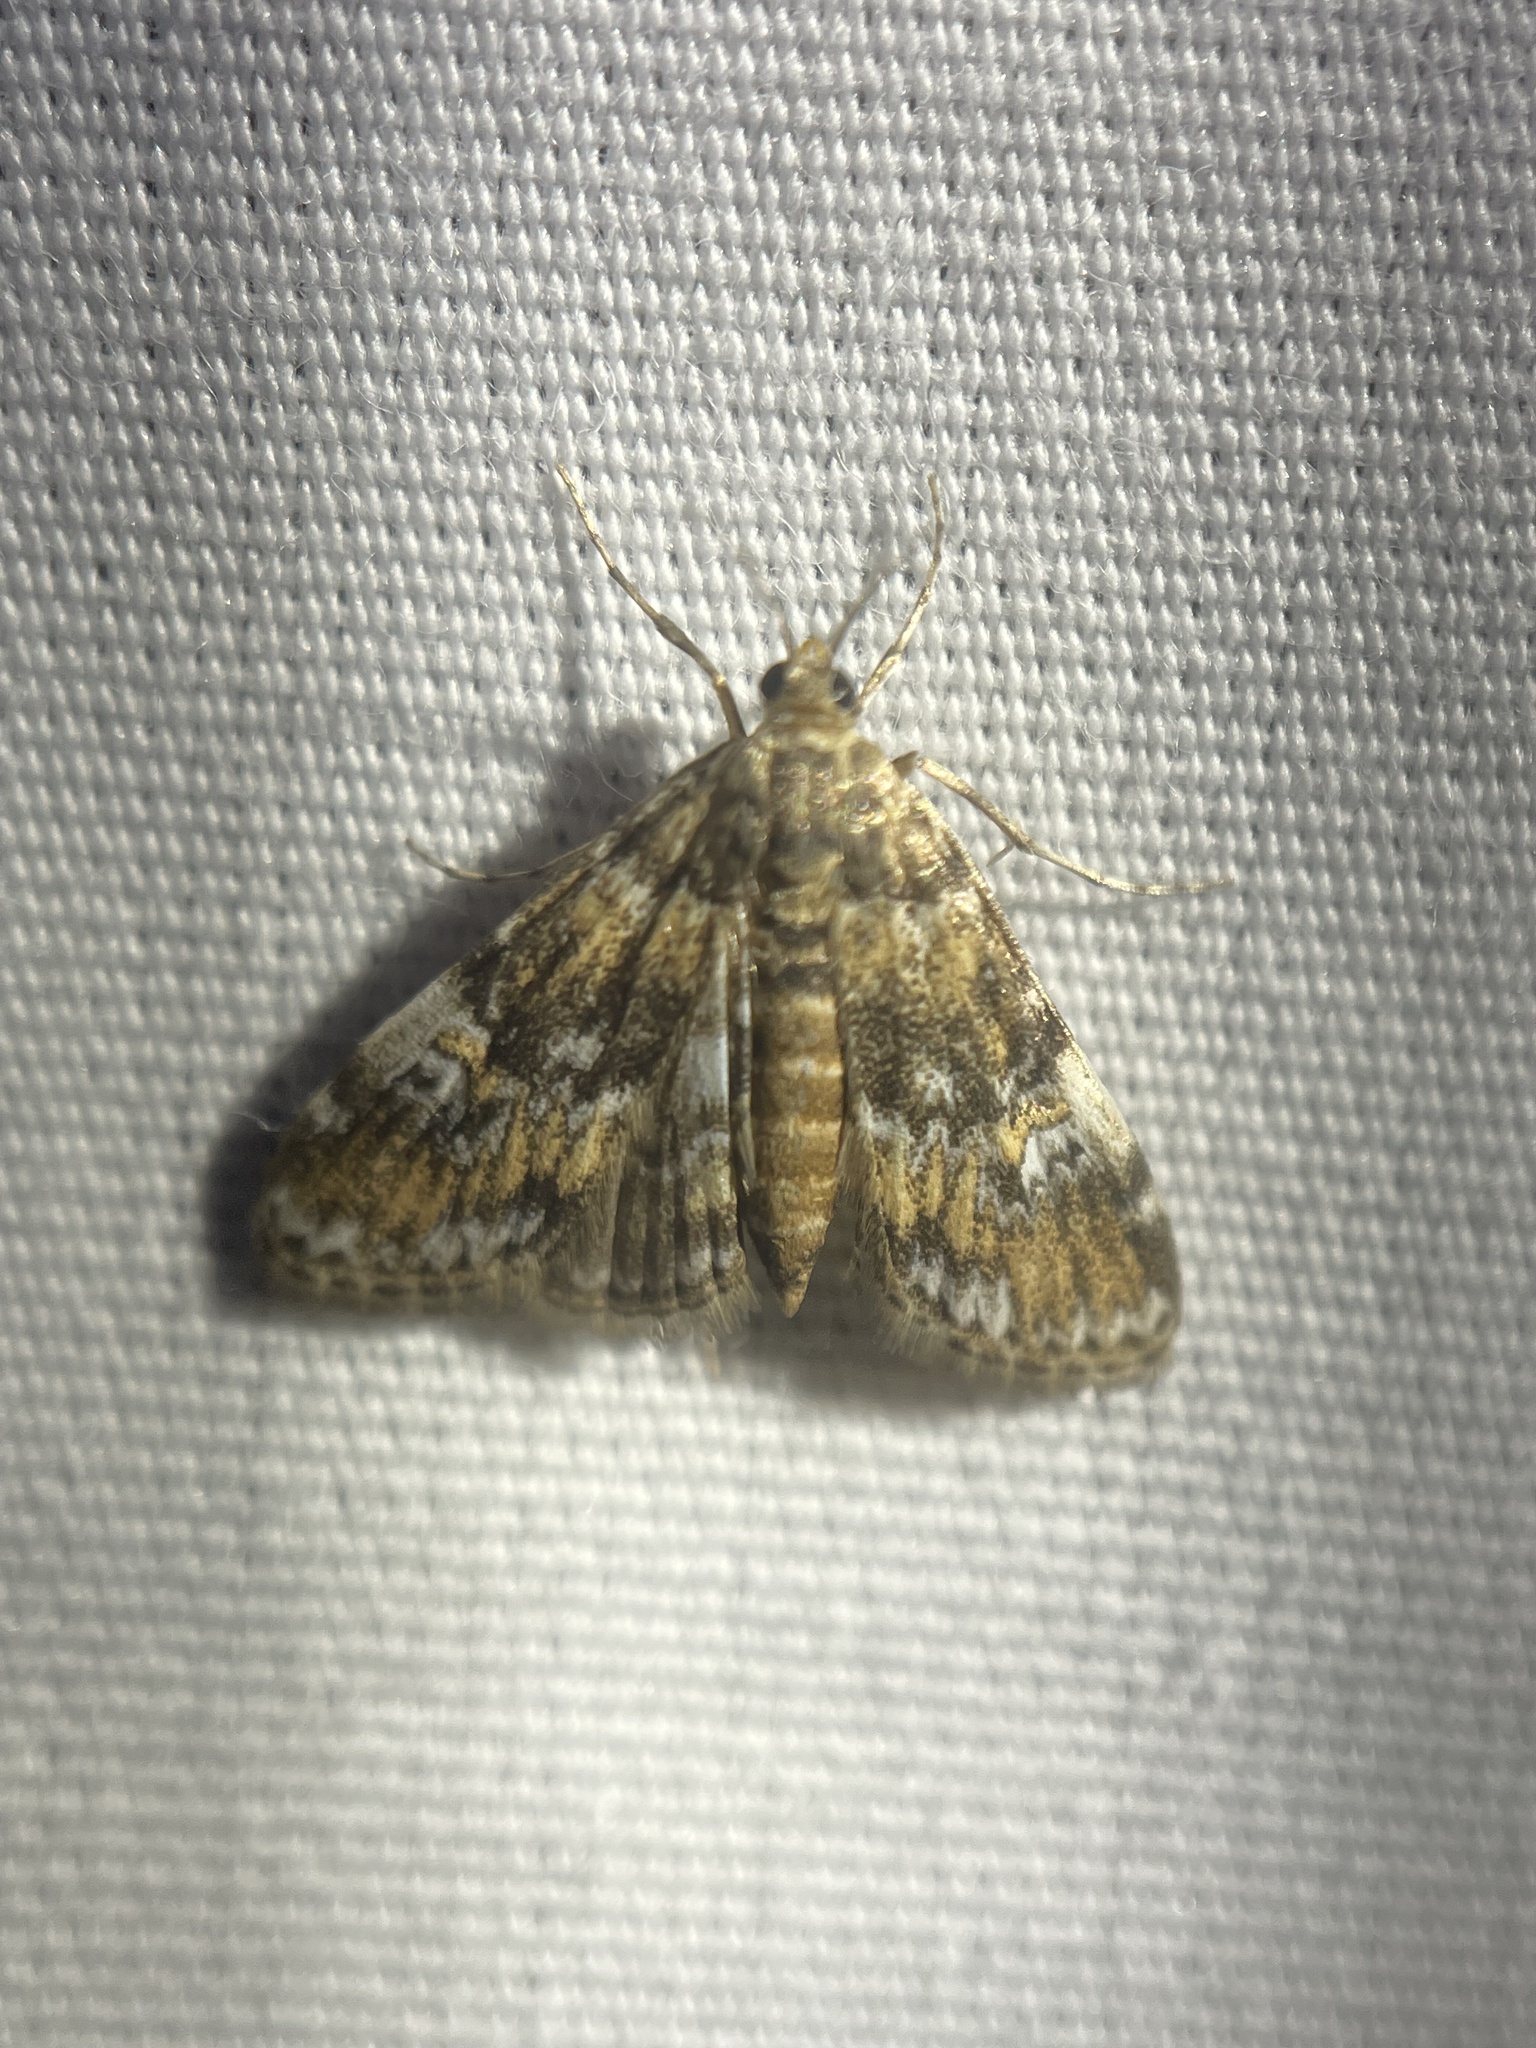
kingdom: Animalia
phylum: Arthropoda
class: Insecta
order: Lepidoptera
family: Crambidae
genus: Elophila
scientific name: Elophila obliteralis
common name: Waterlily leafcutter moth
